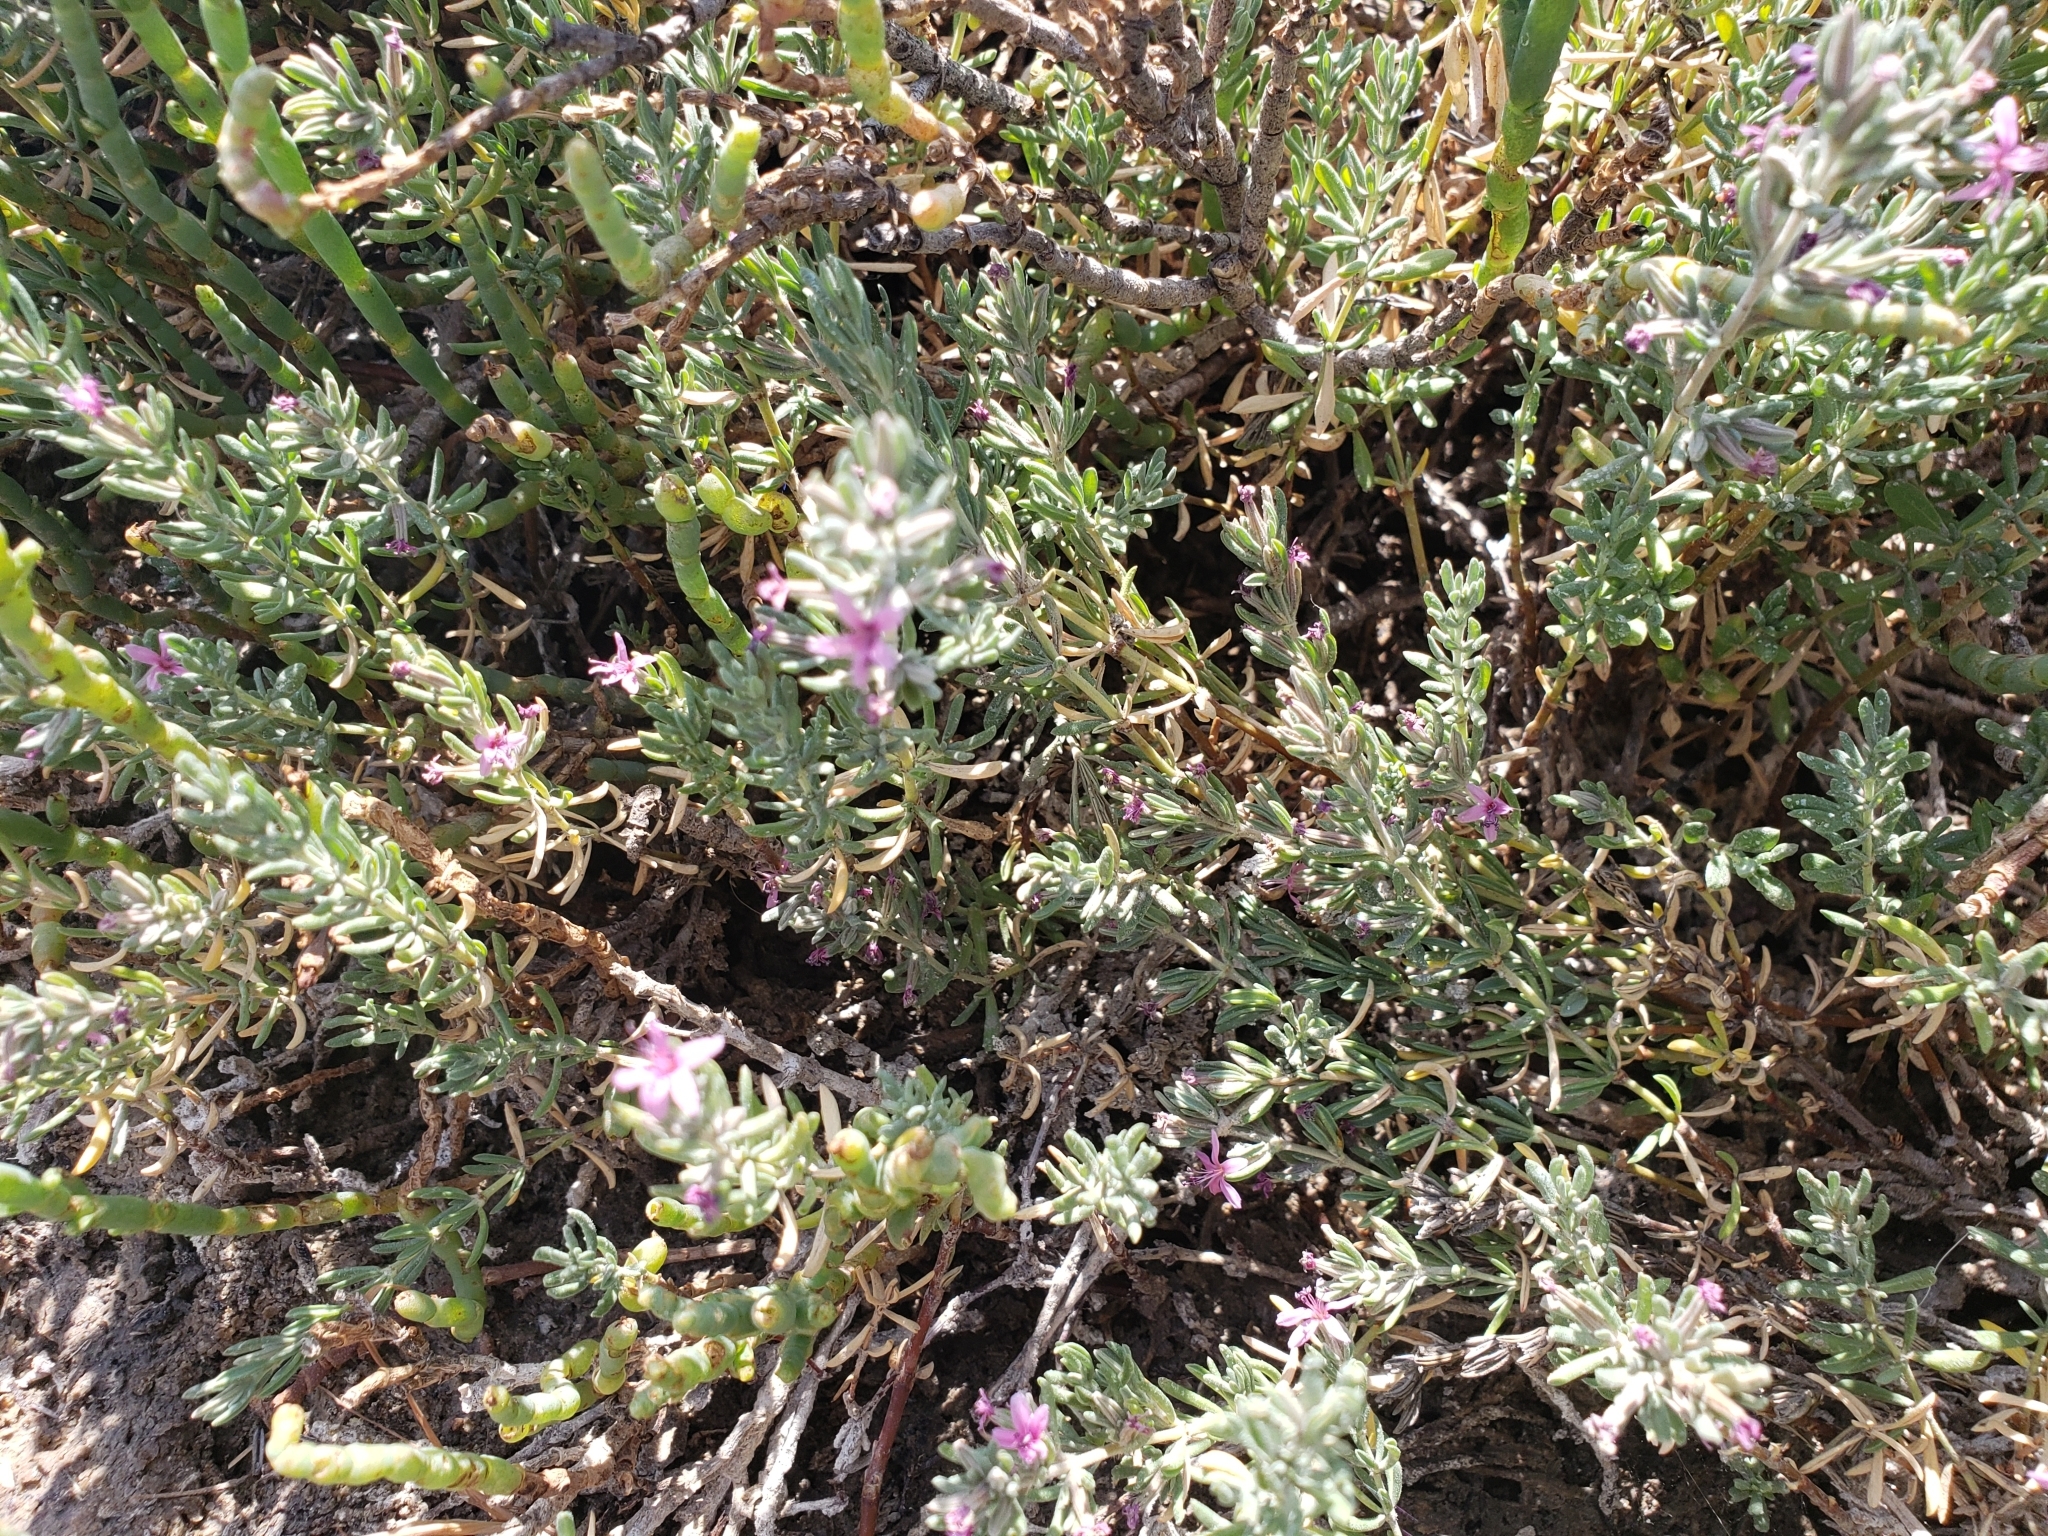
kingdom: Plantae
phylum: Tracheophyta
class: Magnoliopsida
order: Caryophyllales
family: Frankeniaceae
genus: Frankenia
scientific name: Frankenia salina
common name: Alkali seaheath
